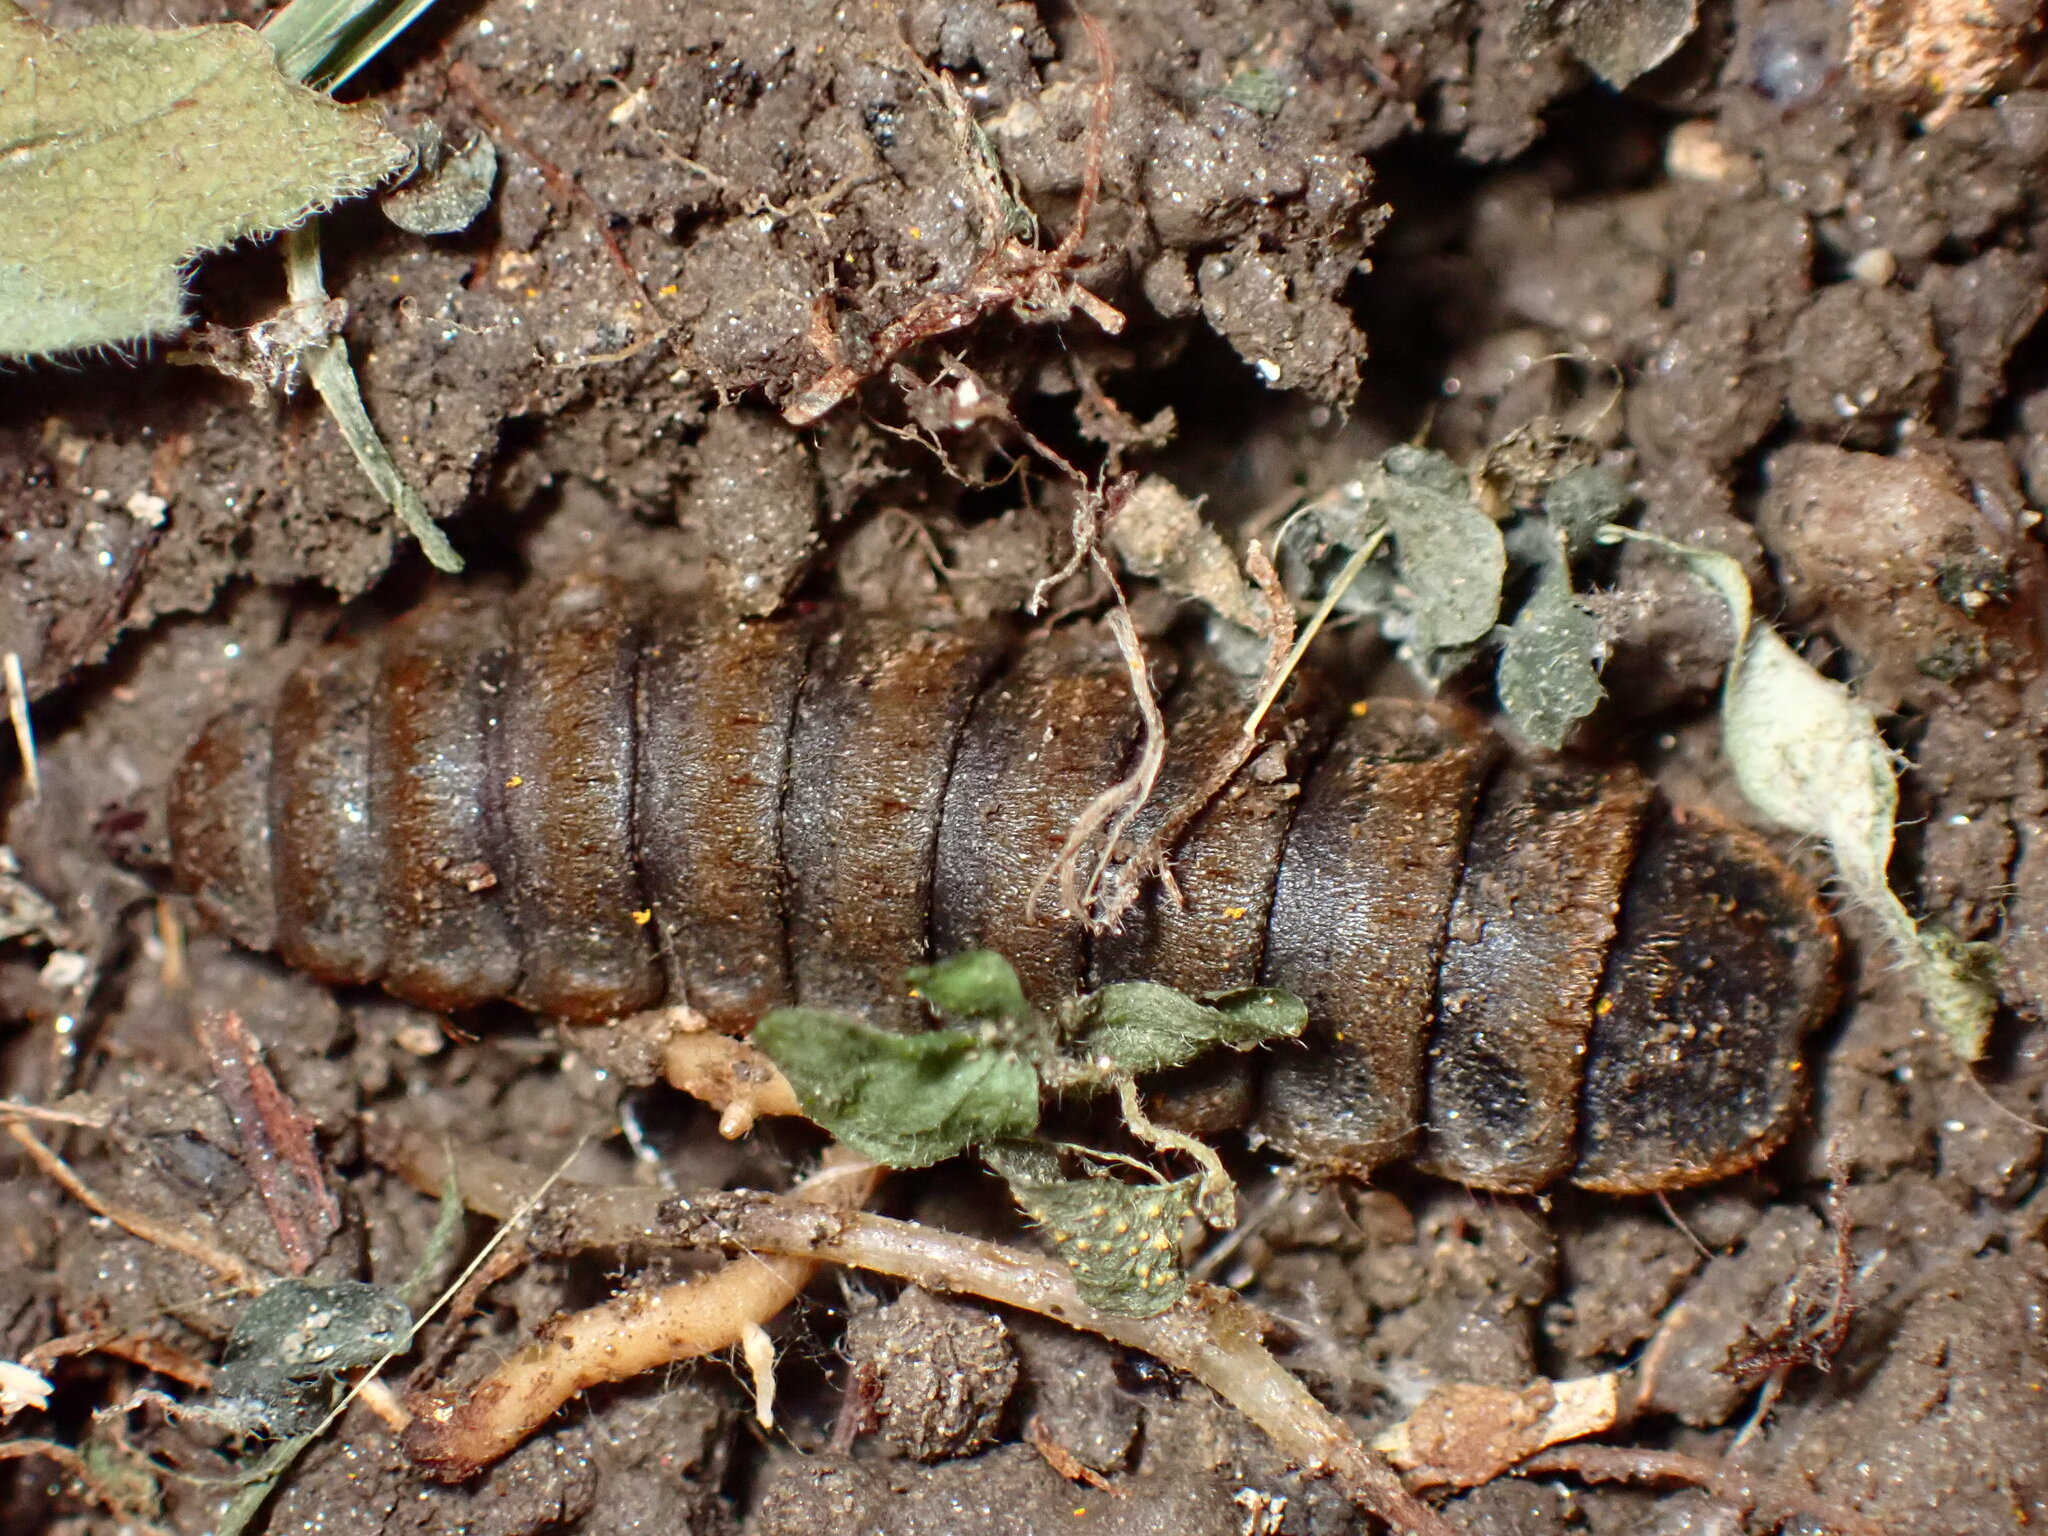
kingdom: Animalia
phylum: Arthropoda
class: Insecta
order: Diptera
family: Stratiomyidae
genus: Hermetia
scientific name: Hermetia illucens
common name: Black soldier fly
